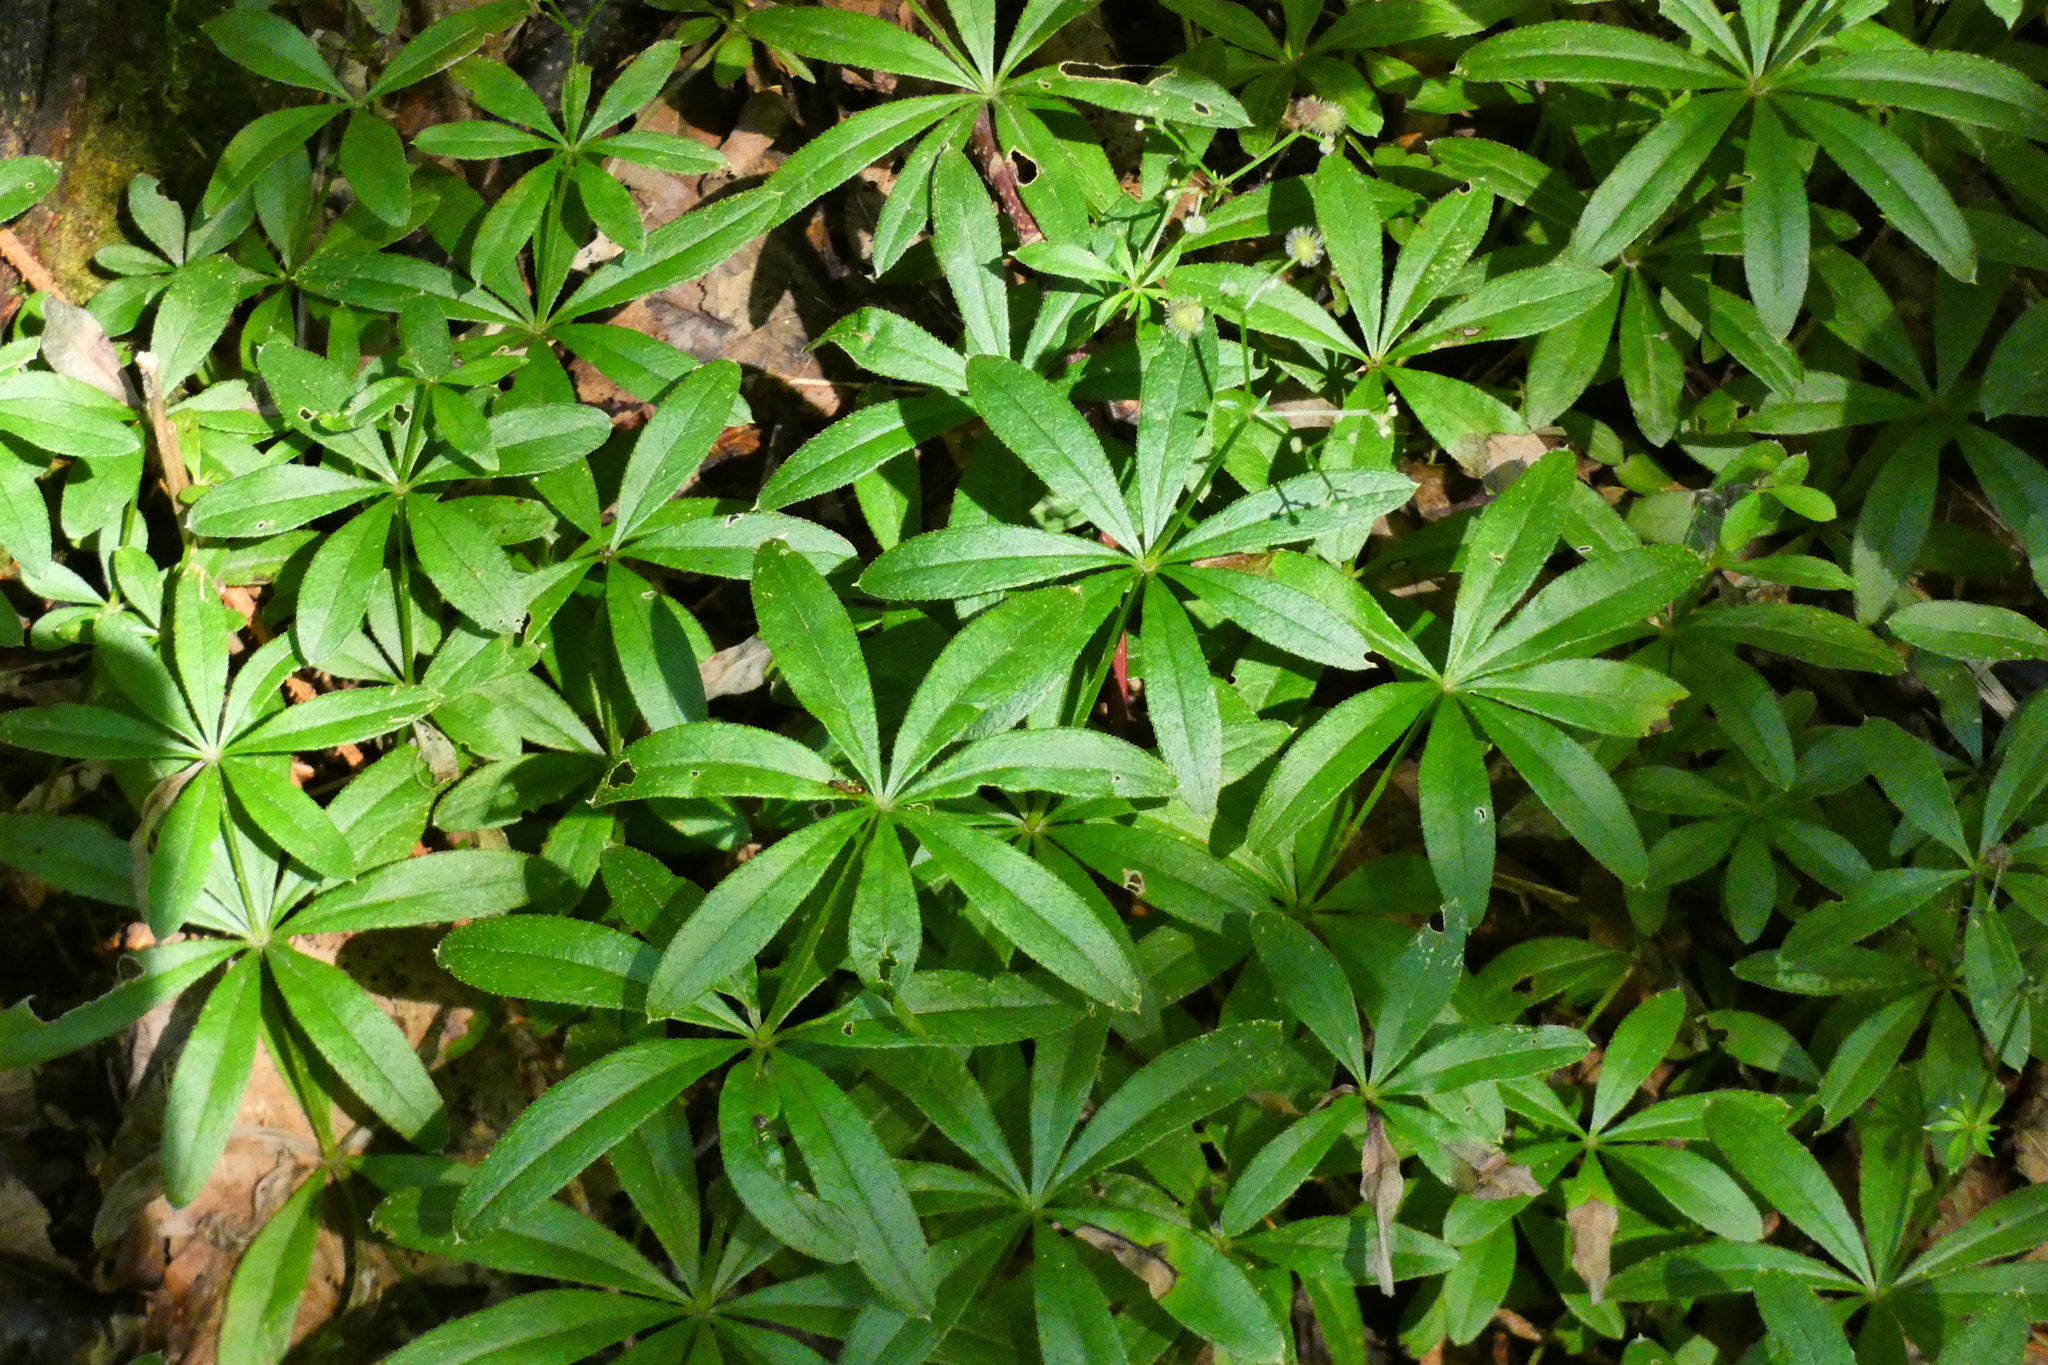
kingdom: Plantae
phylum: Tracheophyta
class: Magnoliopsida
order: Gentianales
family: Rubiaceae
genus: Galium
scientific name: Galium odoratum
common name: Sweet woodruff
